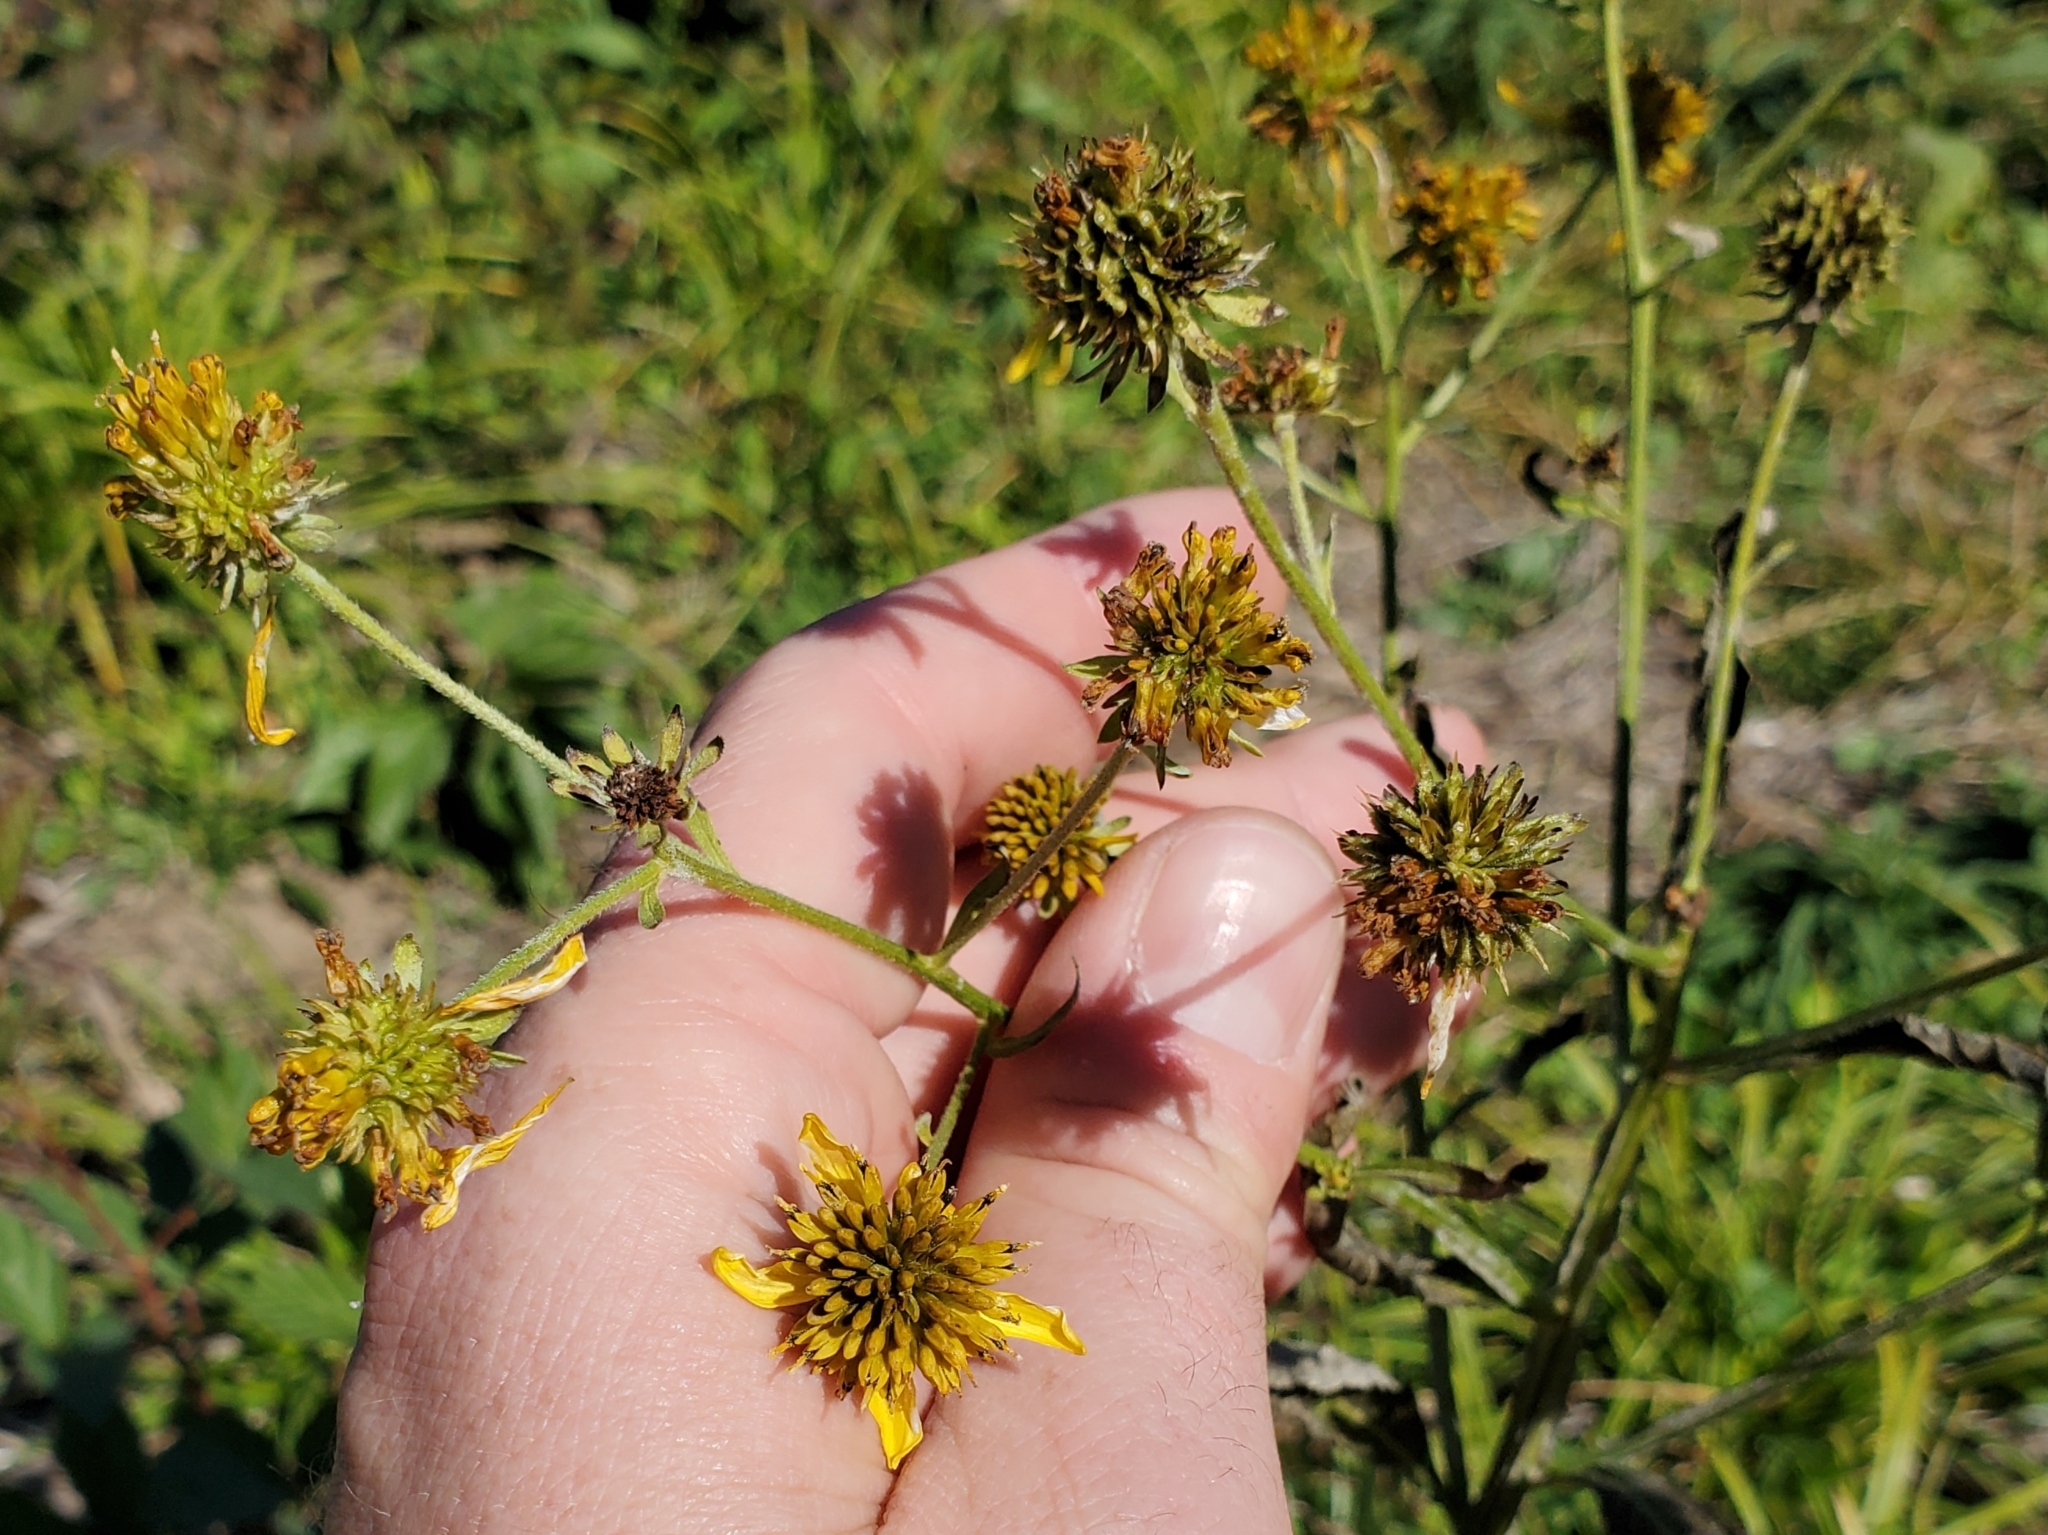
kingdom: Plantae
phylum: Tracheophyta
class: Magnoliopsida
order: Asterales
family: Asteraceae
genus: Verbesina
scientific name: Verbesina alternifolia
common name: Wingstem
